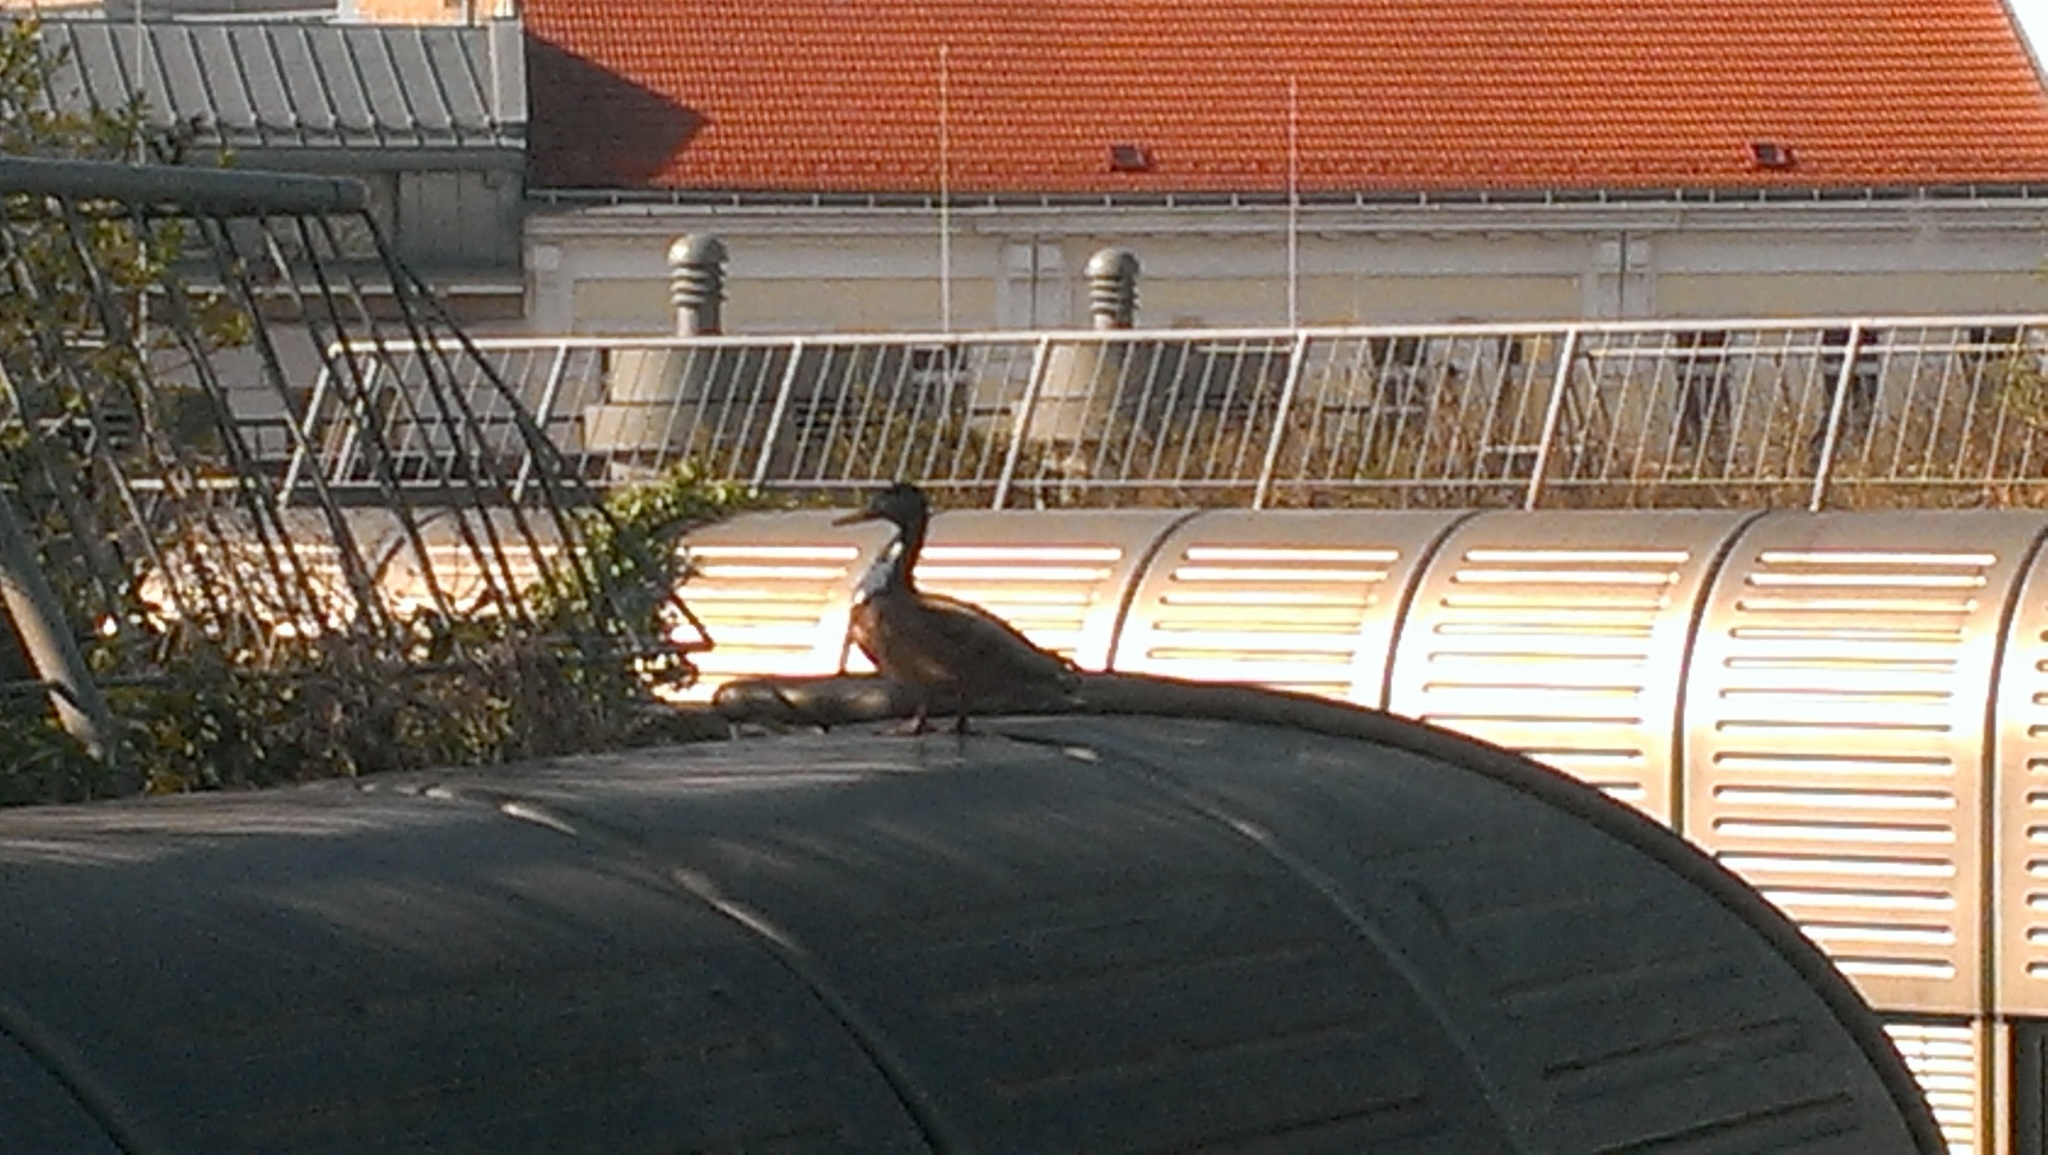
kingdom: Animalia
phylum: Chordata
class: Aves
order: Anseriformes
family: Anatidae
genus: Anas
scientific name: Anas platyrhynchos
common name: Mallard
